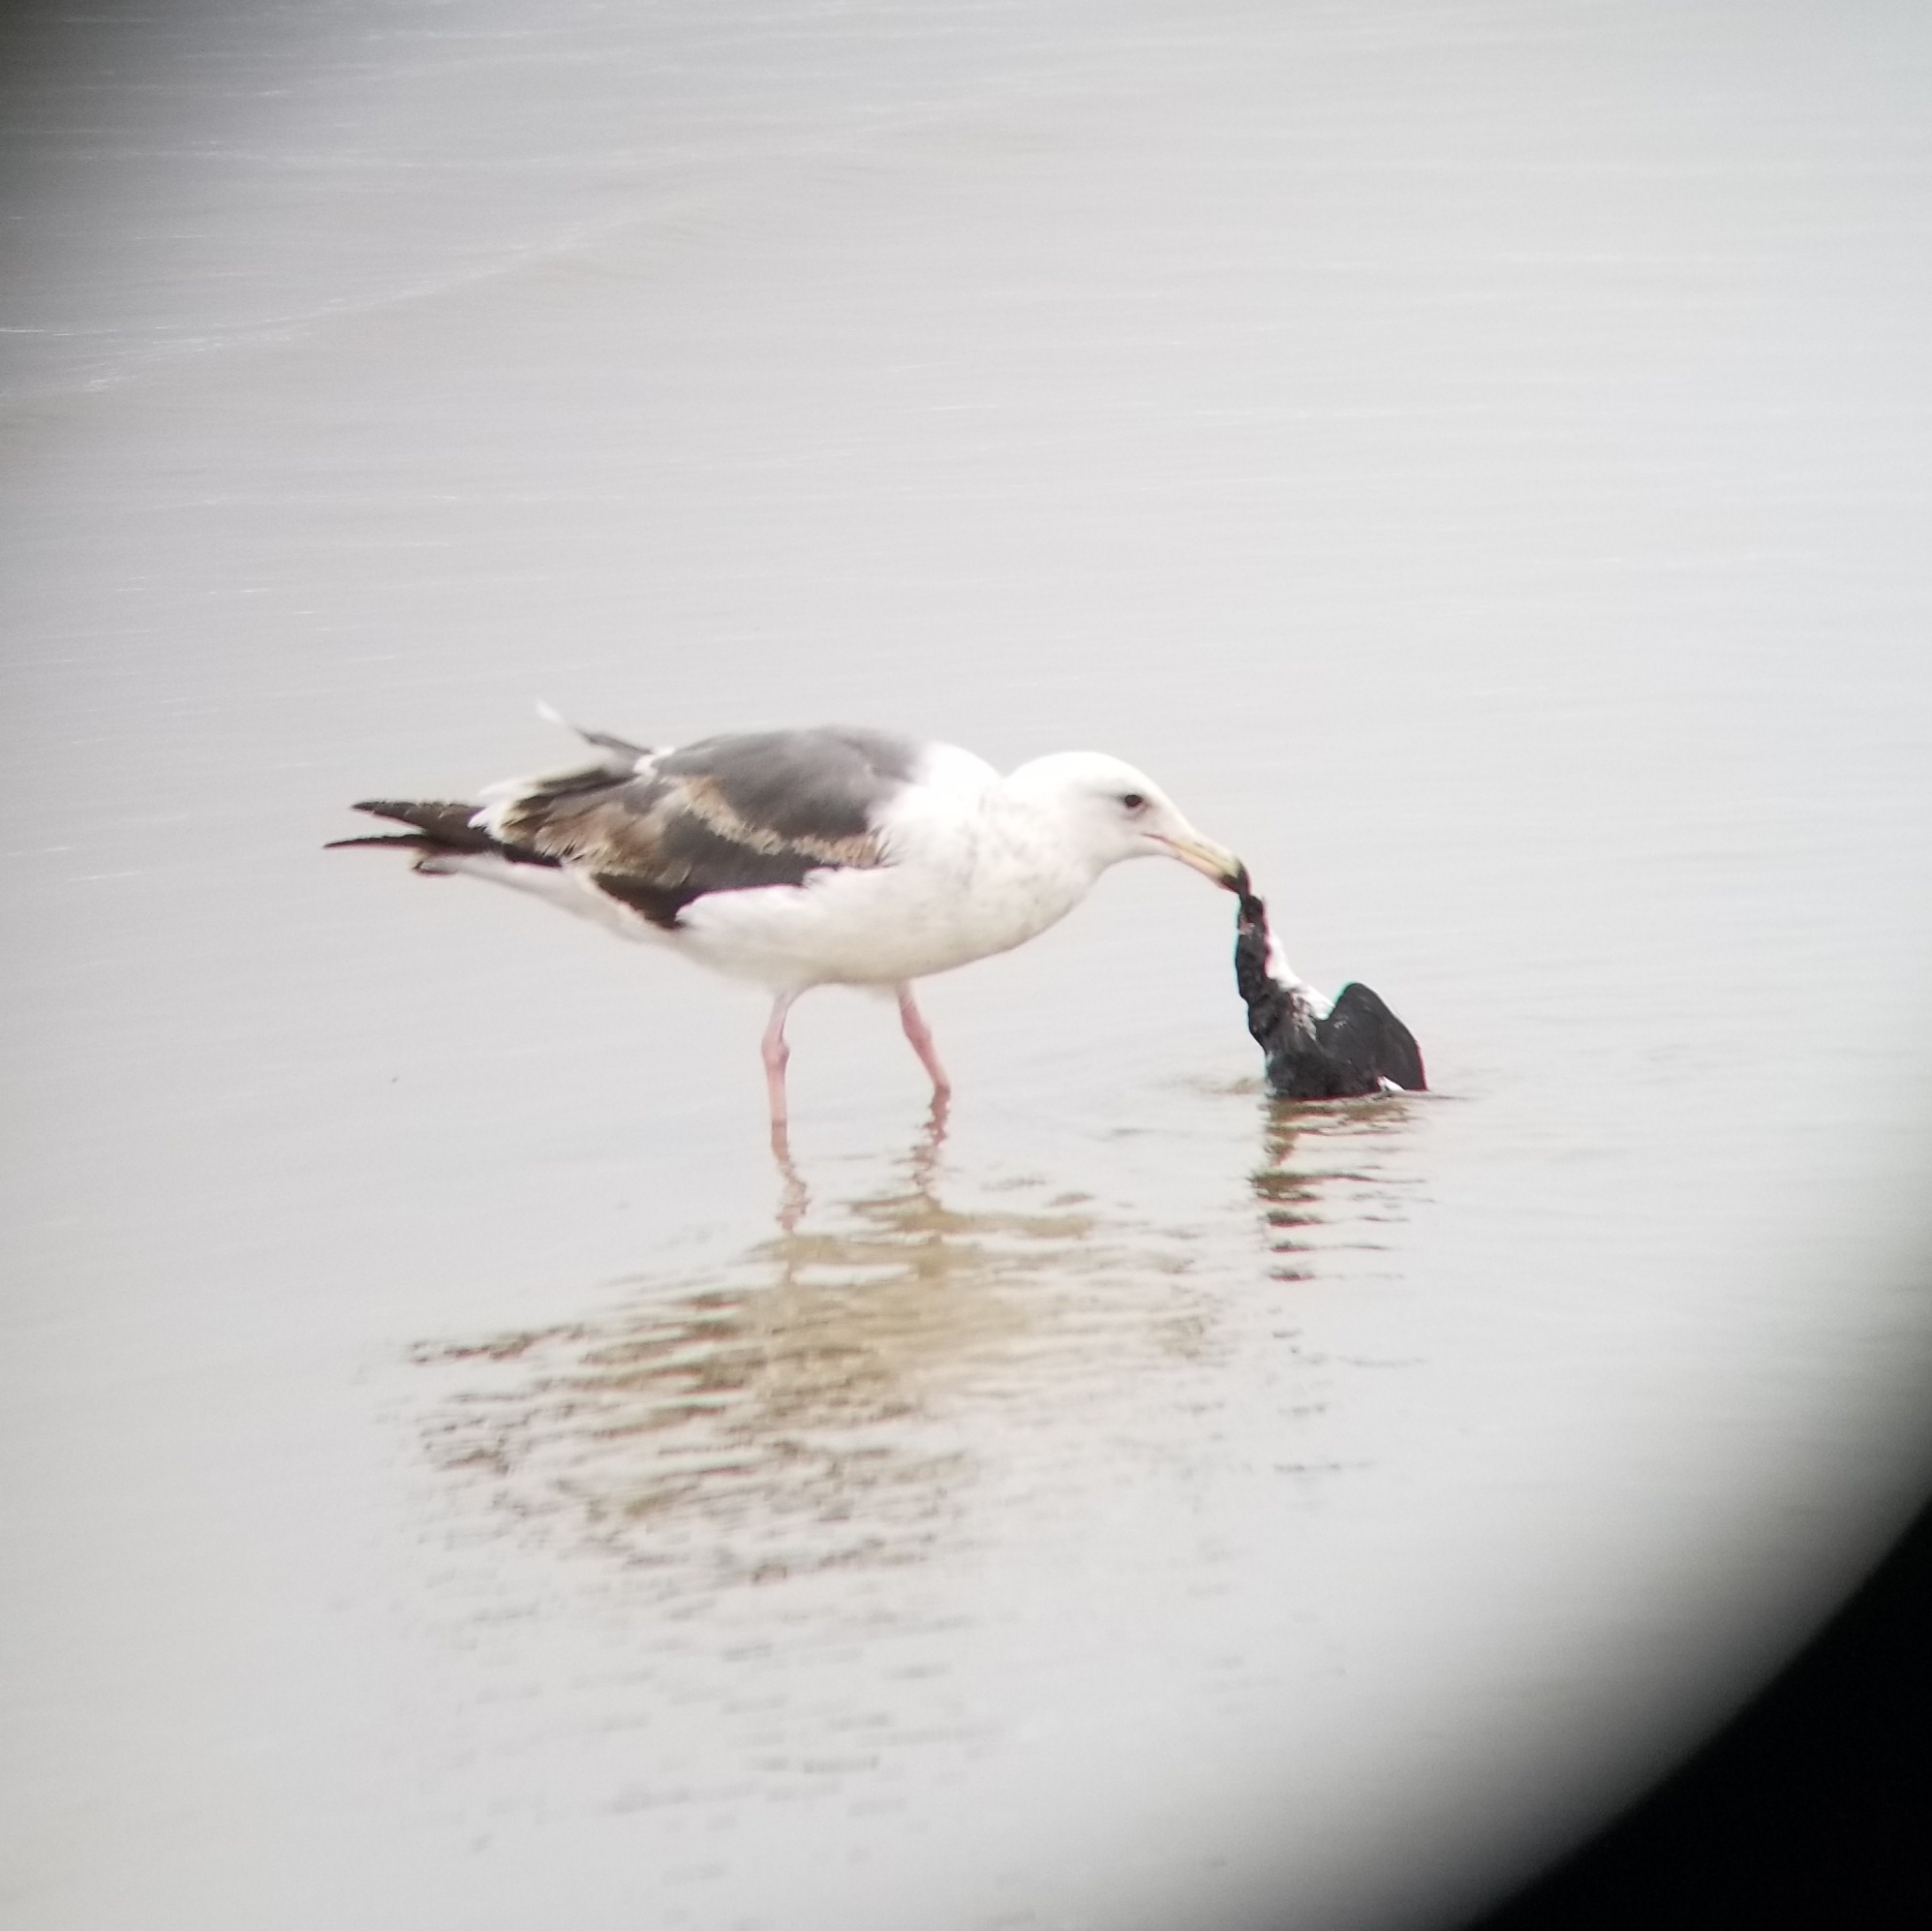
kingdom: Animalia
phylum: Chordata
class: Aves
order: Charadriiformes
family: Alcidae
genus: Synthliboramphus
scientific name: Synthliboramphus scrippsi
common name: Scripps's murrelet
